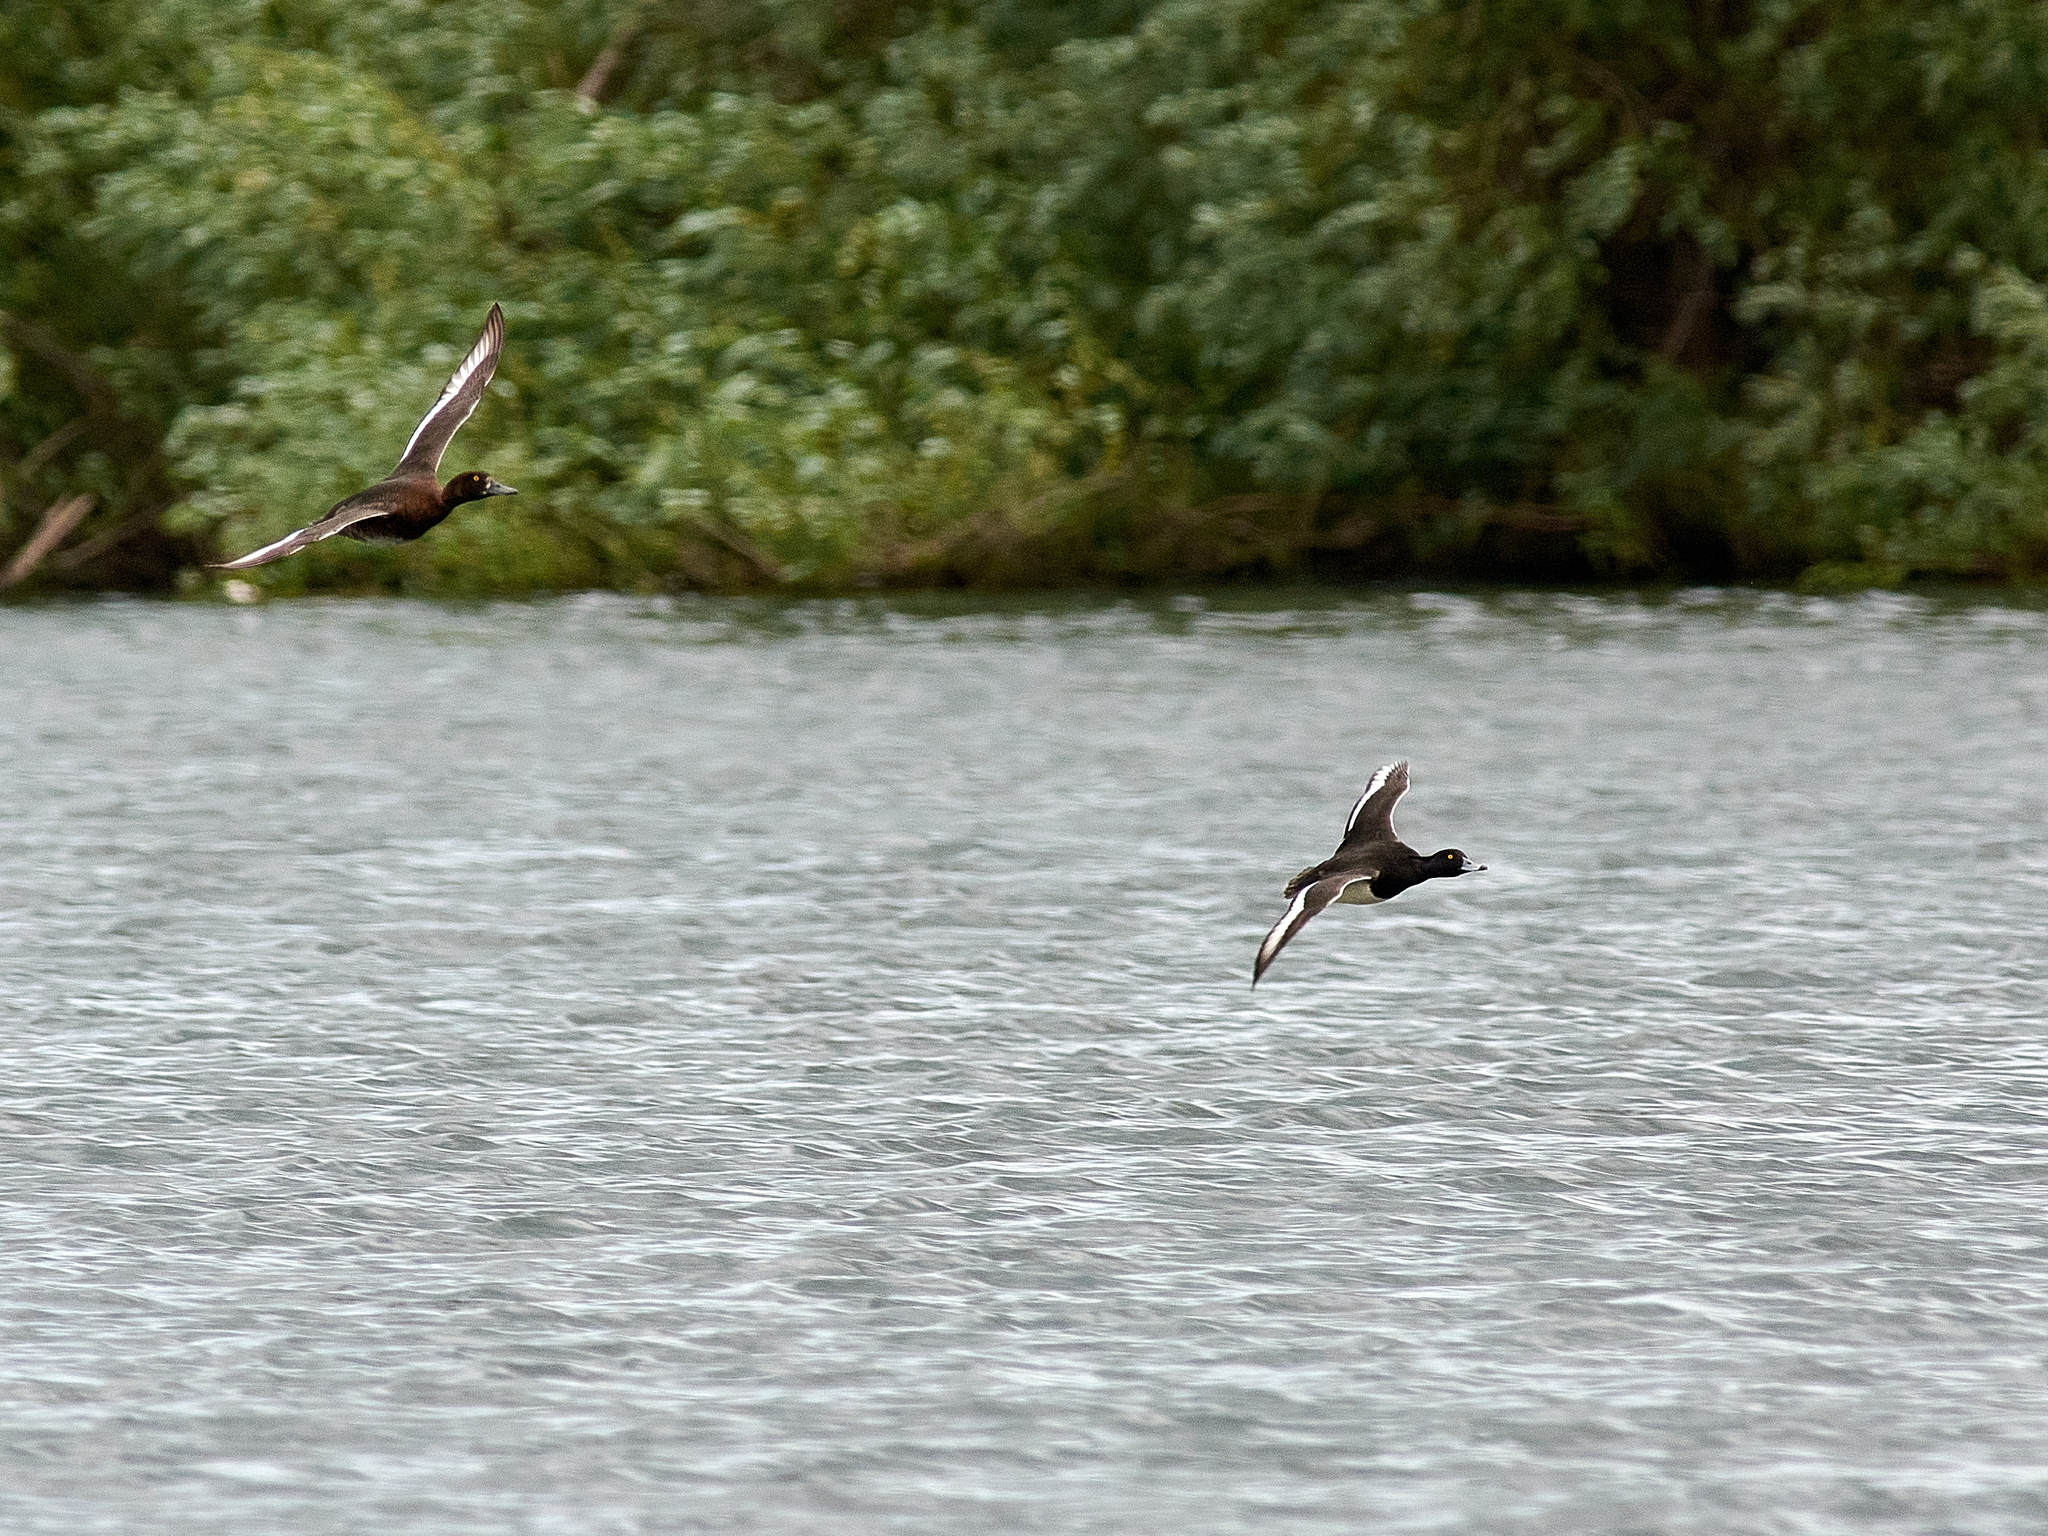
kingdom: Animalia
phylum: Chordata
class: Aves
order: Anseriformes
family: Anatidae
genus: Aythya
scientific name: Aythya fuligula
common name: Tufted duck
